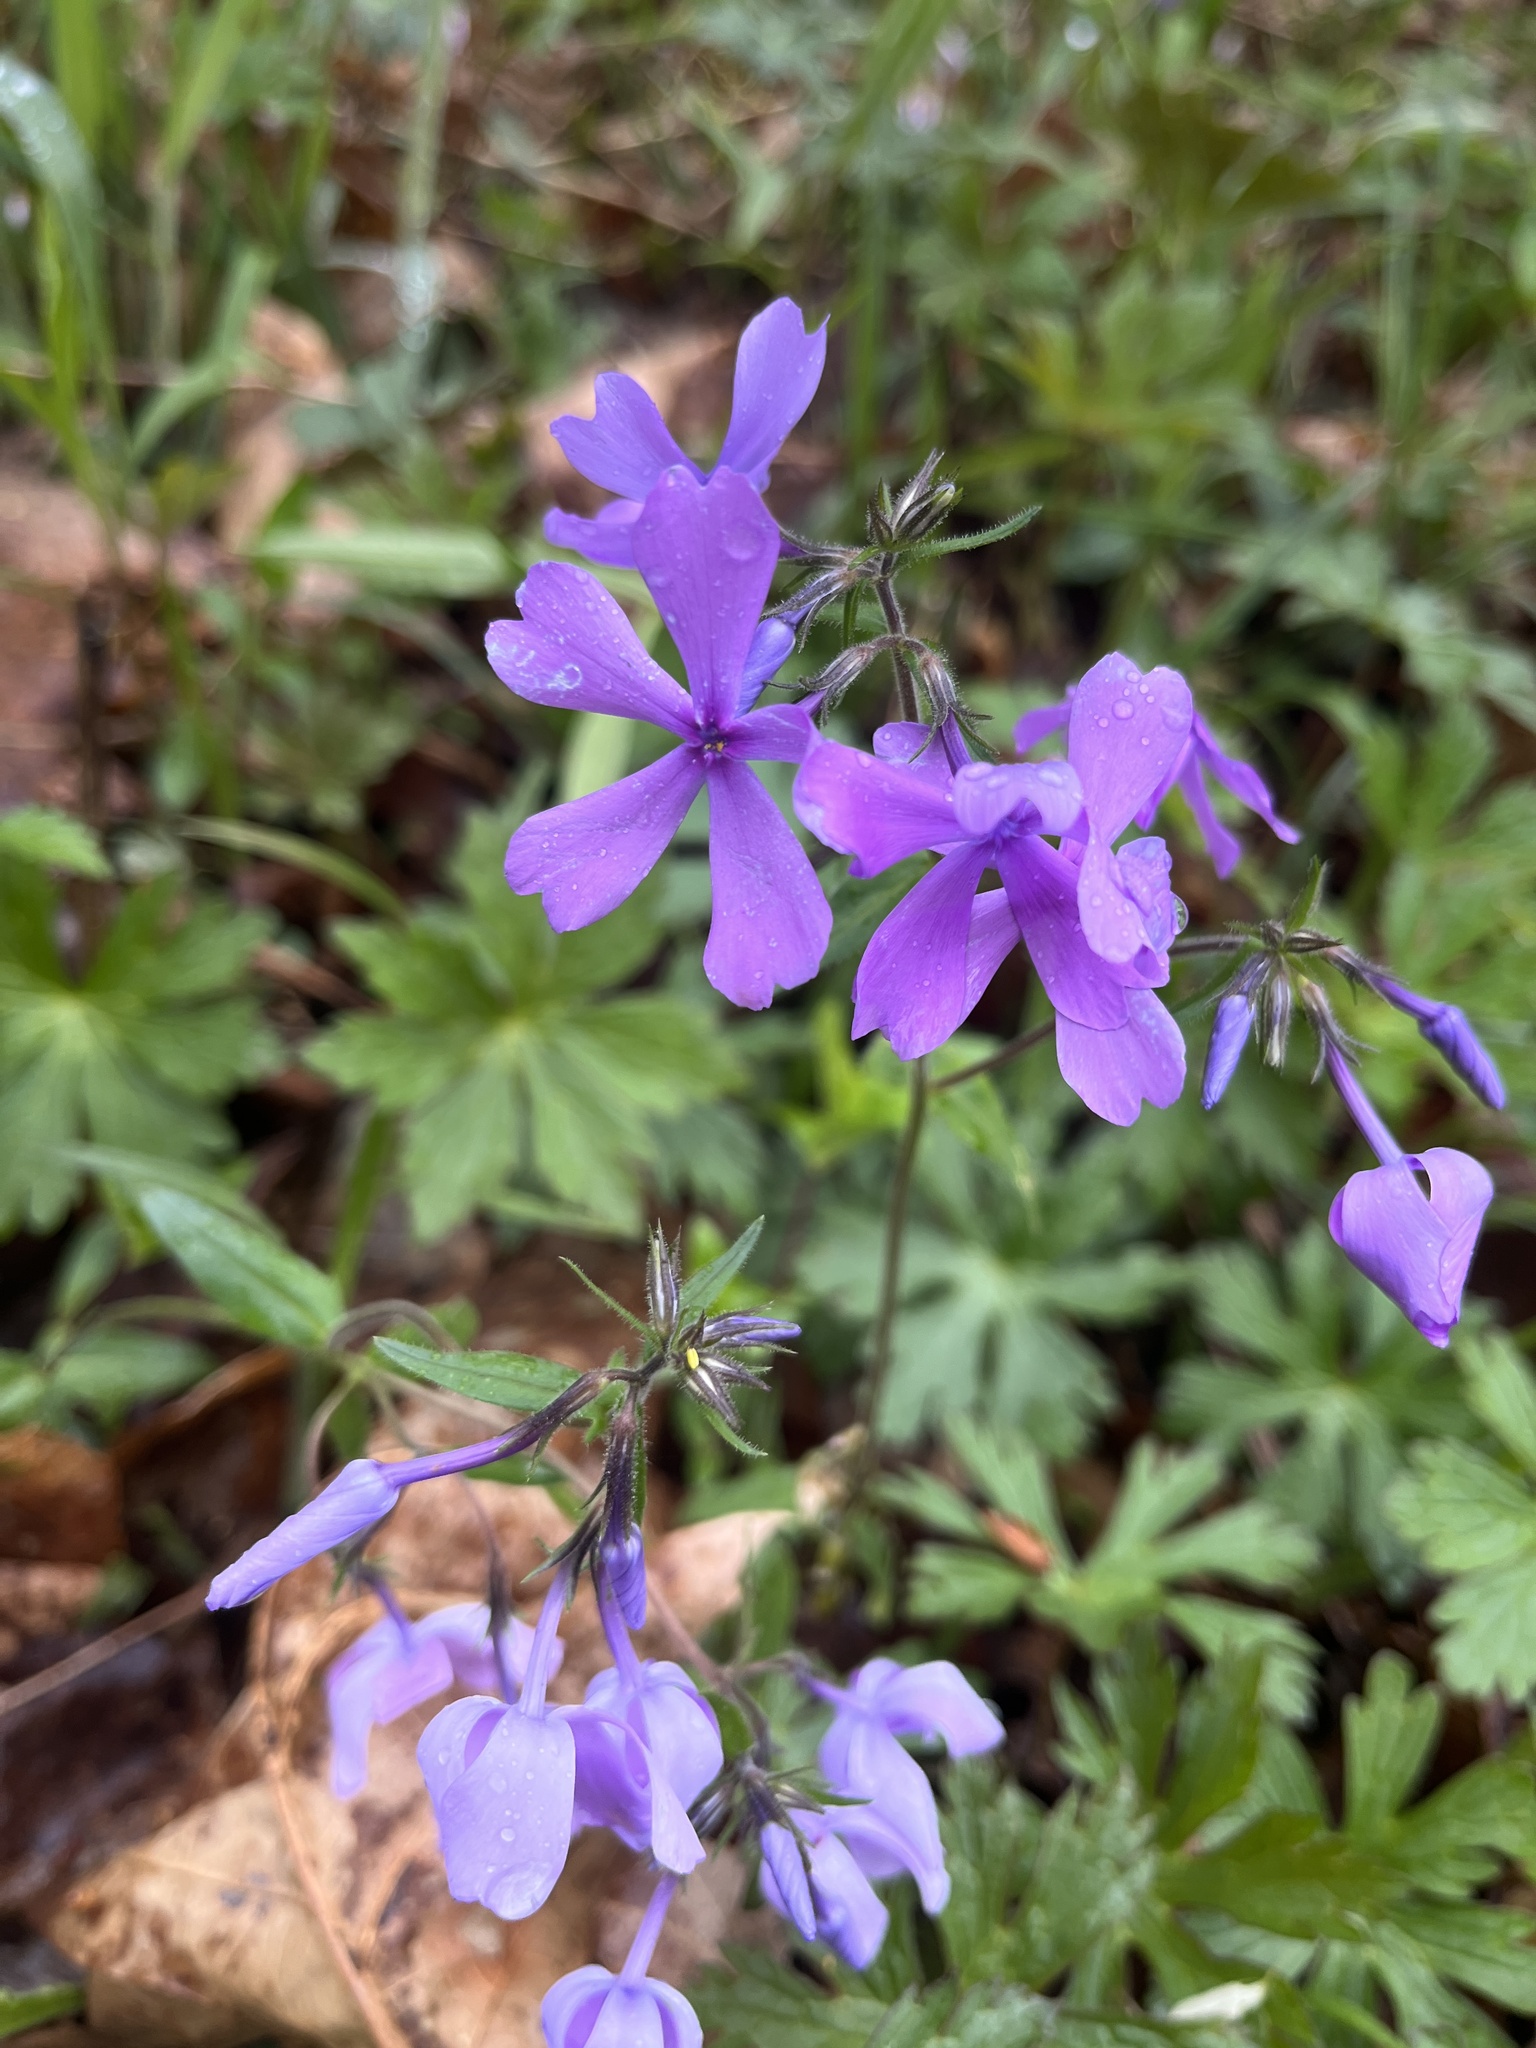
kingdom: Plantae
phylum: Tracheophyta
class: Magnoliopsida
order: Ericales
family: Polemoniaceae
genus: Phlox
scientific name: Phlox divaricata
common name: Blue phlox
